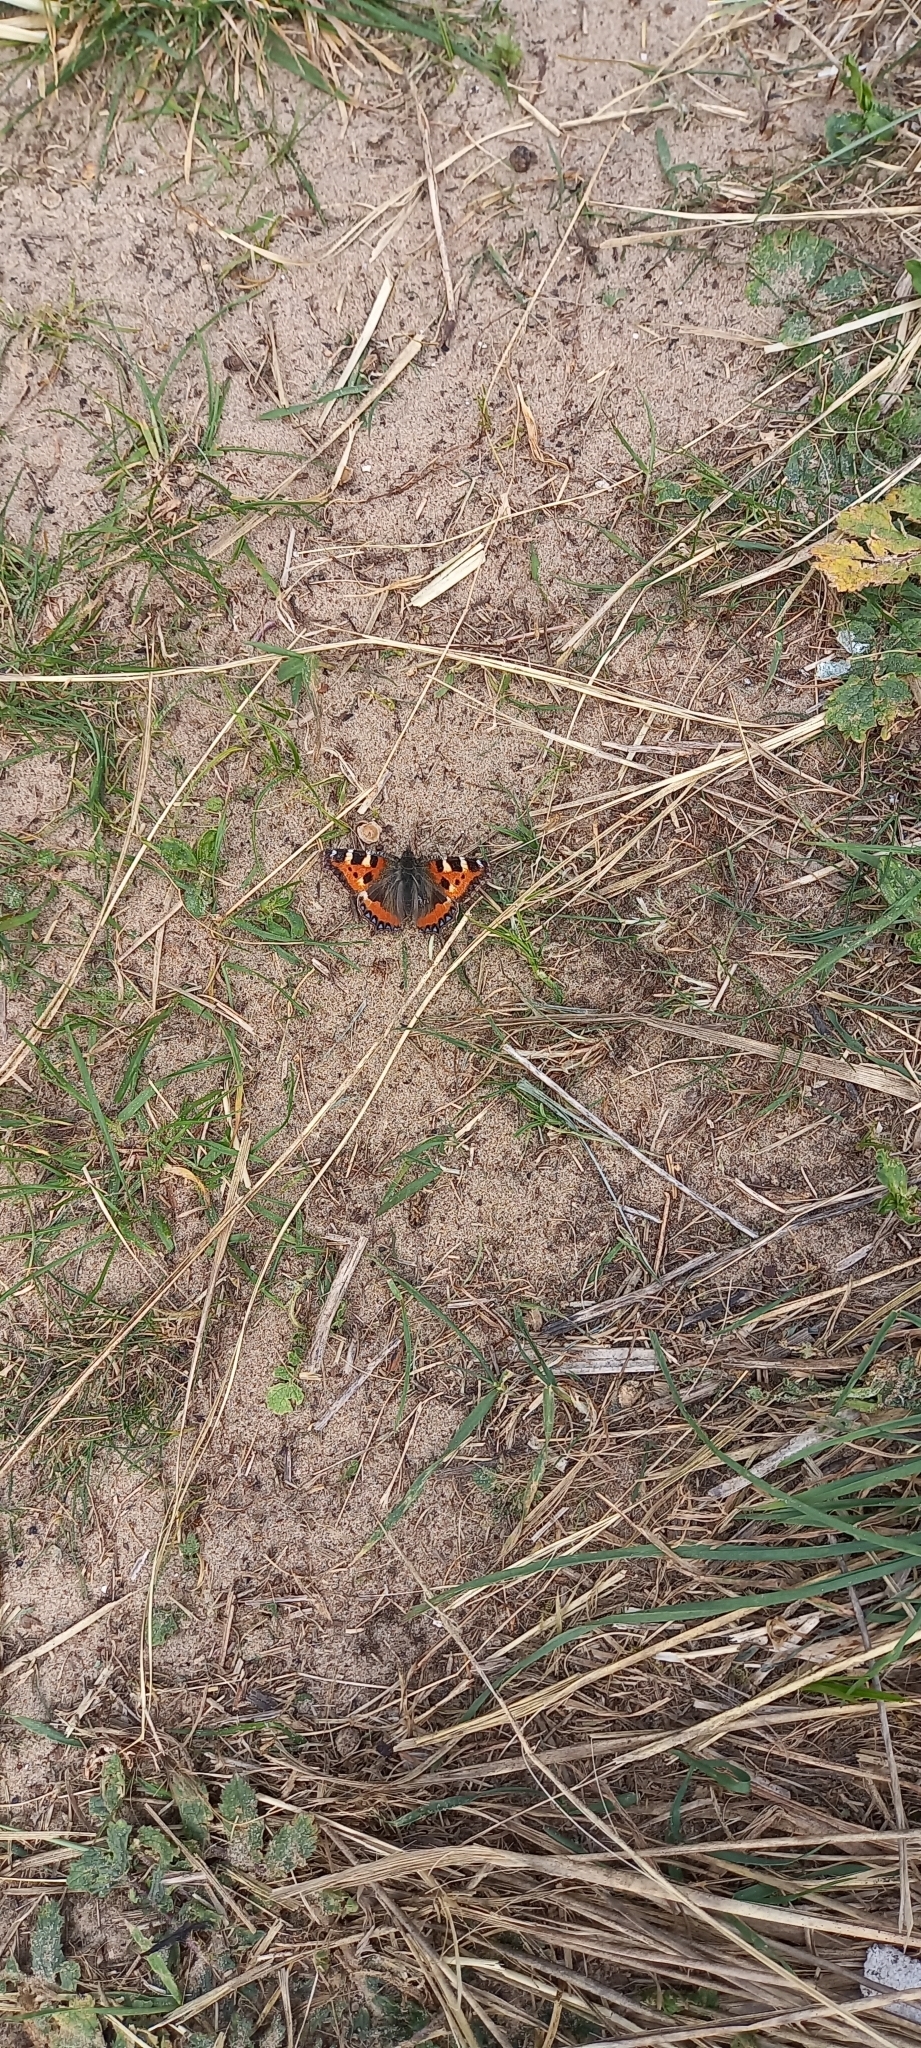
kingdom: Animalia
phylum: Arthropoda
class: Insecta
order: Lepidoptera
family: Nymphalidae
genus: Aglais
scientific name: Aglais urticae
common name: Small tortoiseshell
